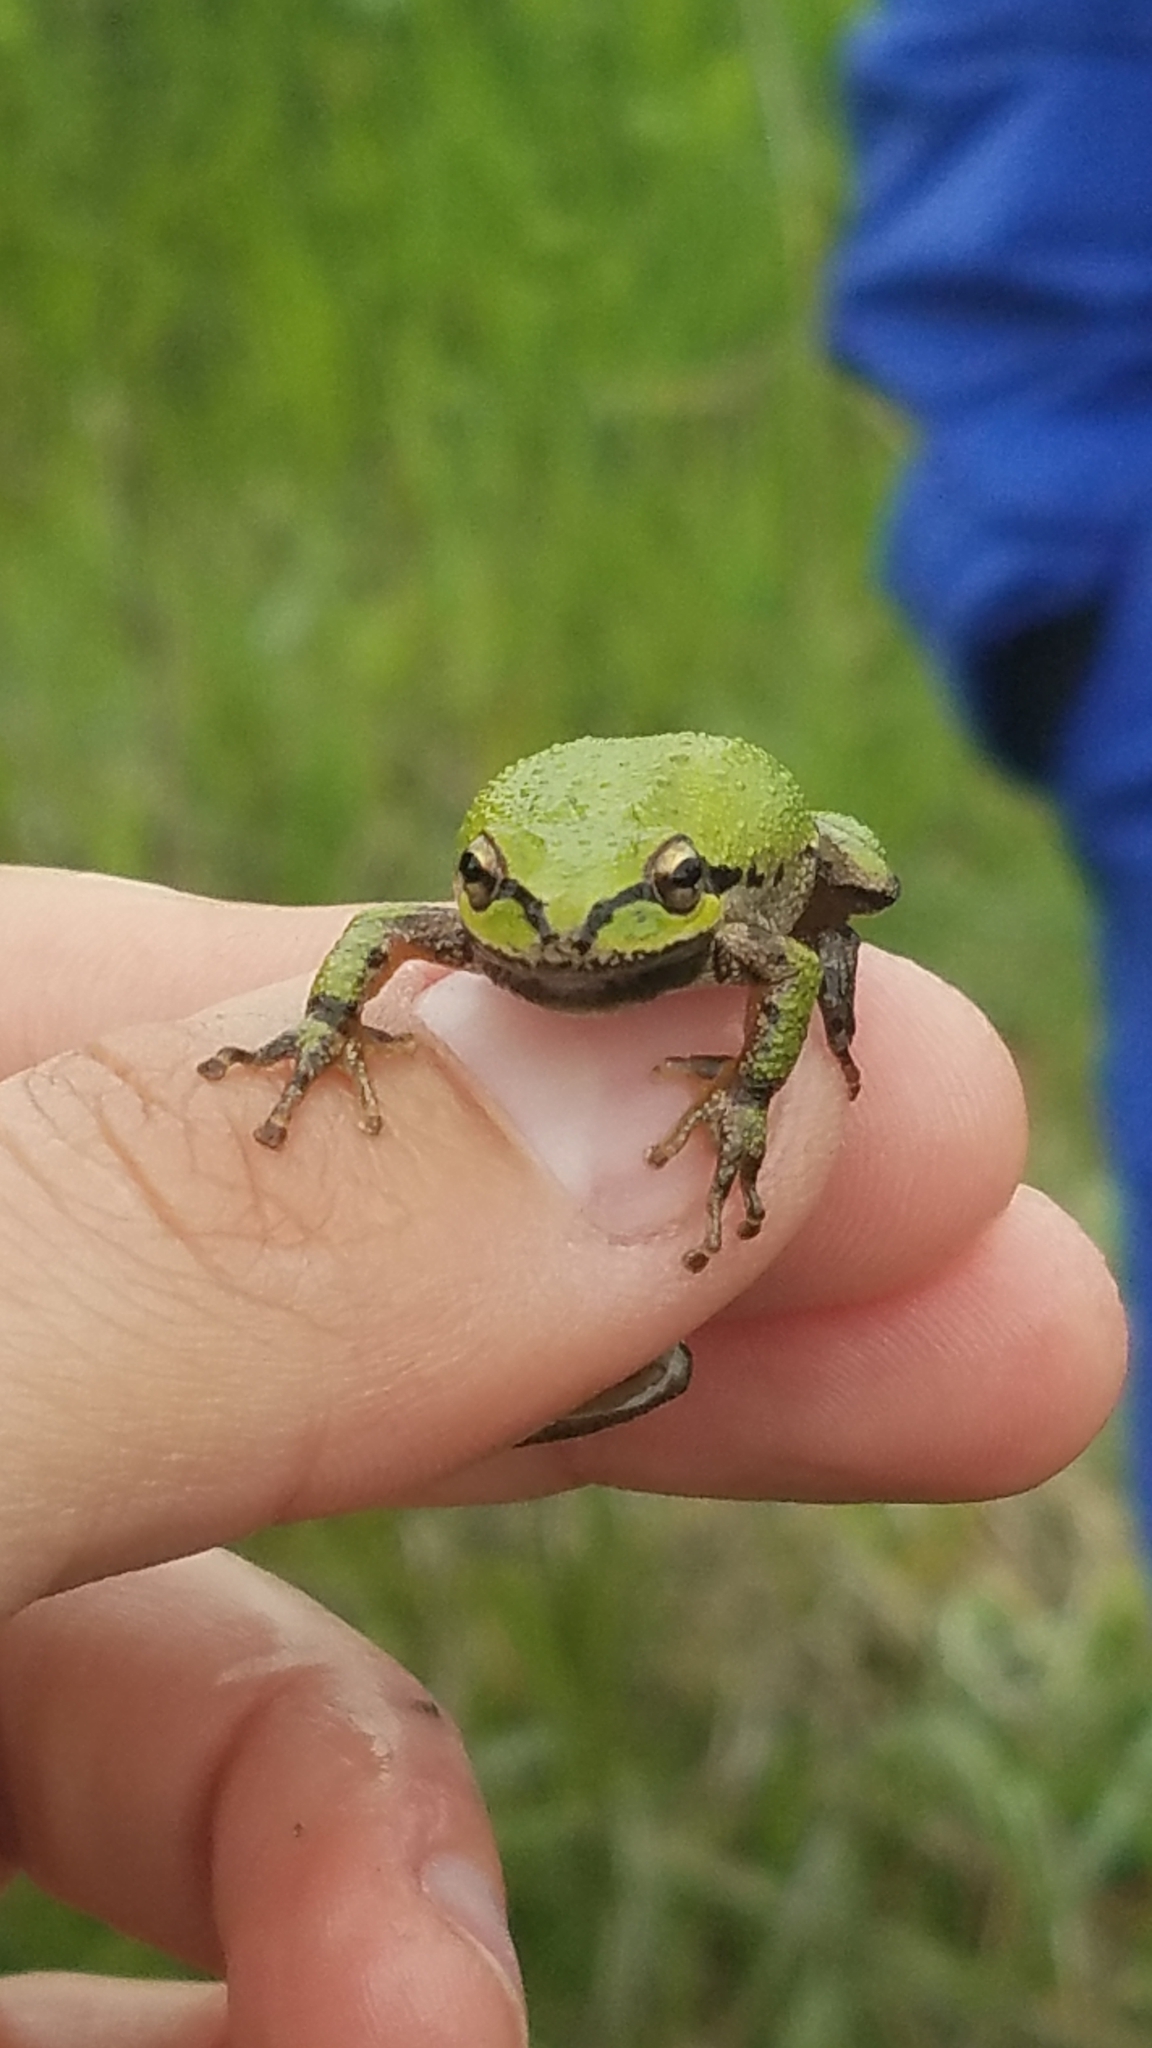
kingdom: Animalia
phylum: Chordata
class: Amphibia
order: Anura
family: Hylidae
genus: Pseudacris
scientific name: Pseudacris regilla
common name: Pacific chorus frog
